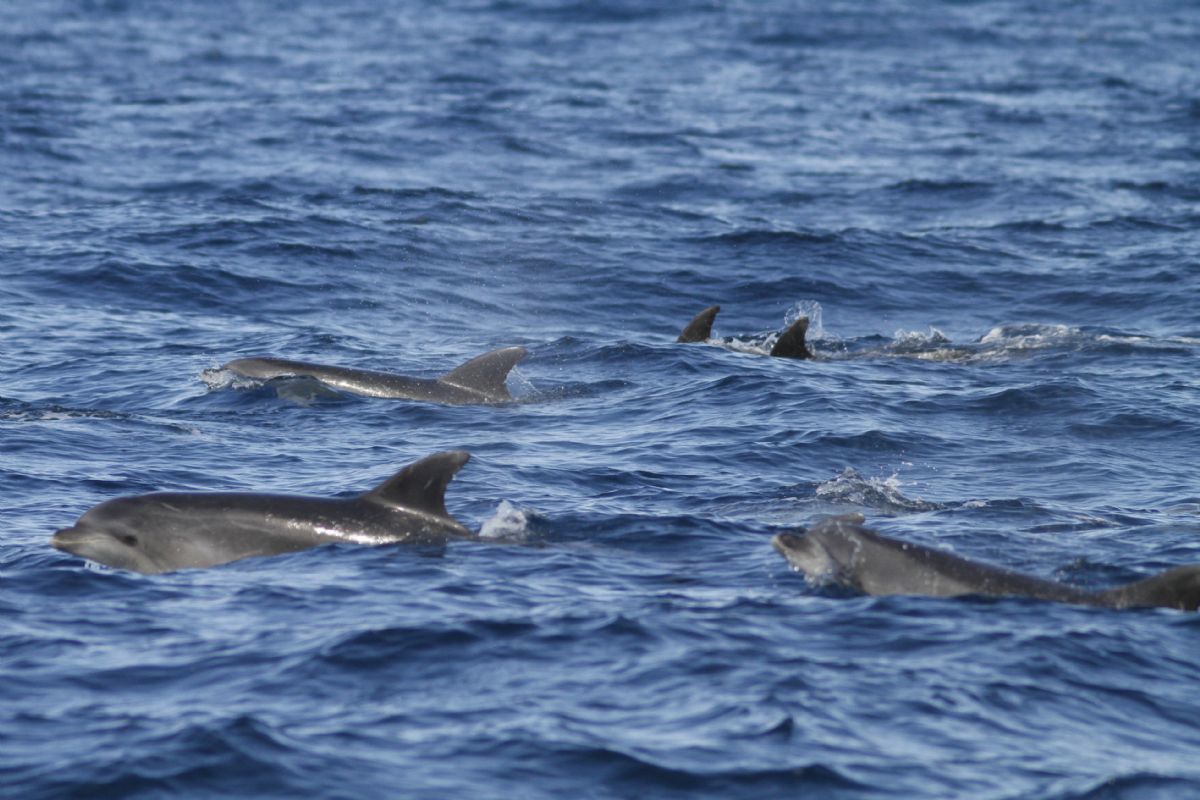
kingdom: Animalia
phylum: Chordata
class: Mammalia
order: Cetacea
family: Delphinidae
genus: Tursiops
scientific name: Tursiops truncatus
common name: Bottlenose dolphin
